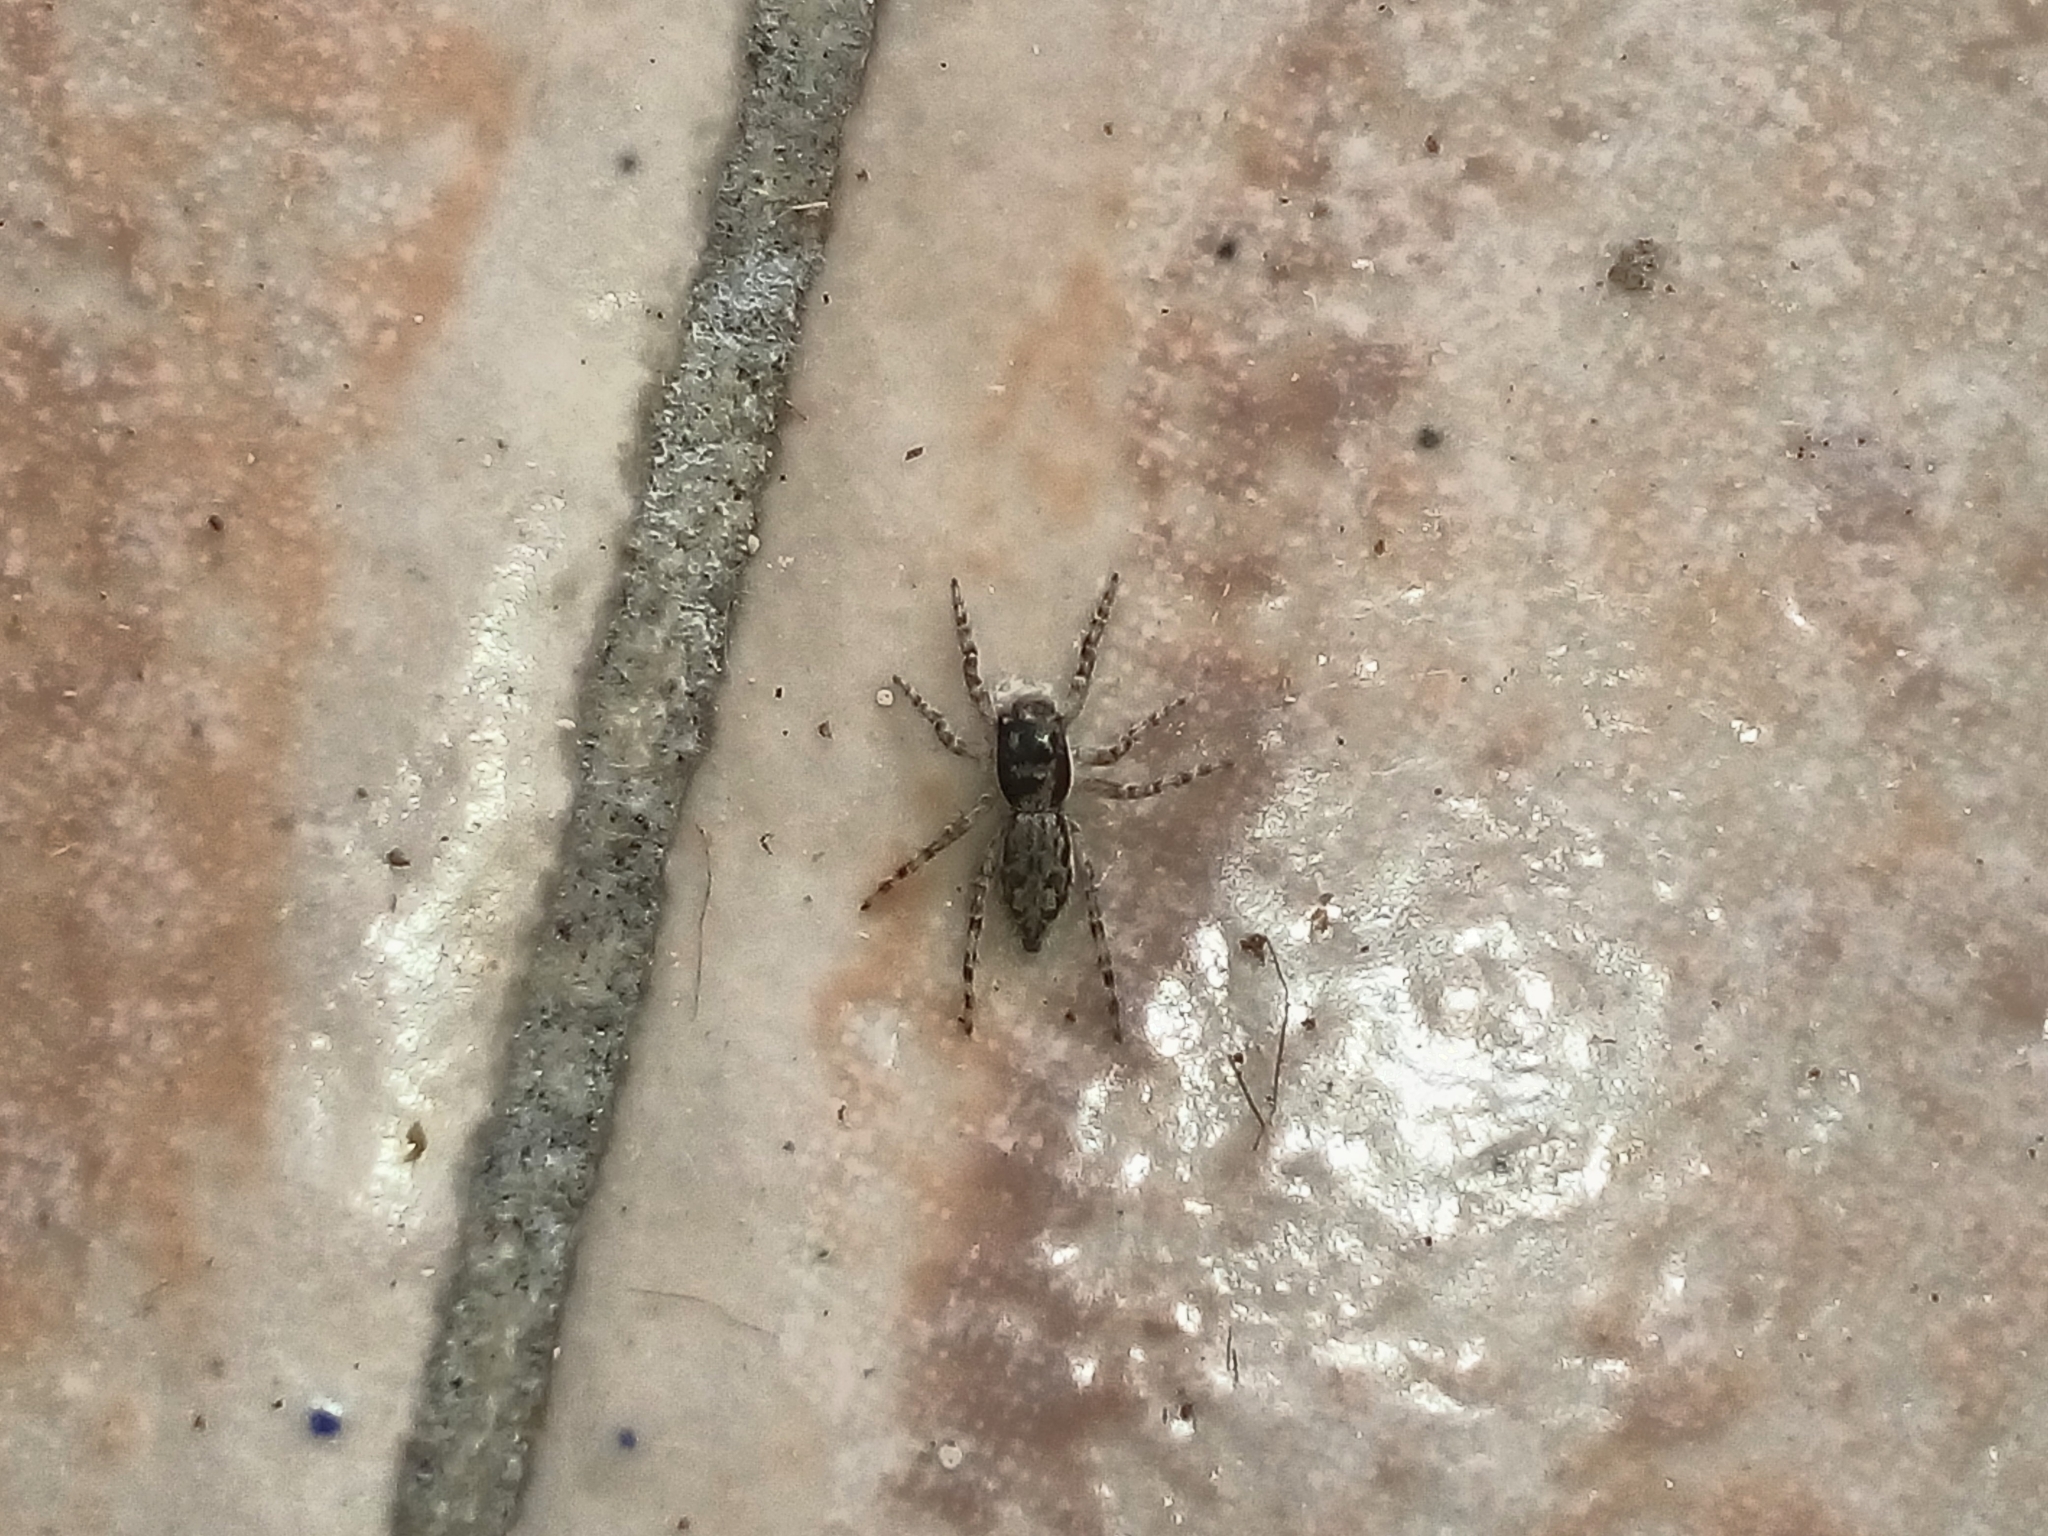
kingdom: Animalia
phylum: Arthropoda
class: Arachnida
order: Araneae
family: Salticidae
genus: Menemerus
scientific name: Menemerus bivittatus
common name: Gray wall jumper
